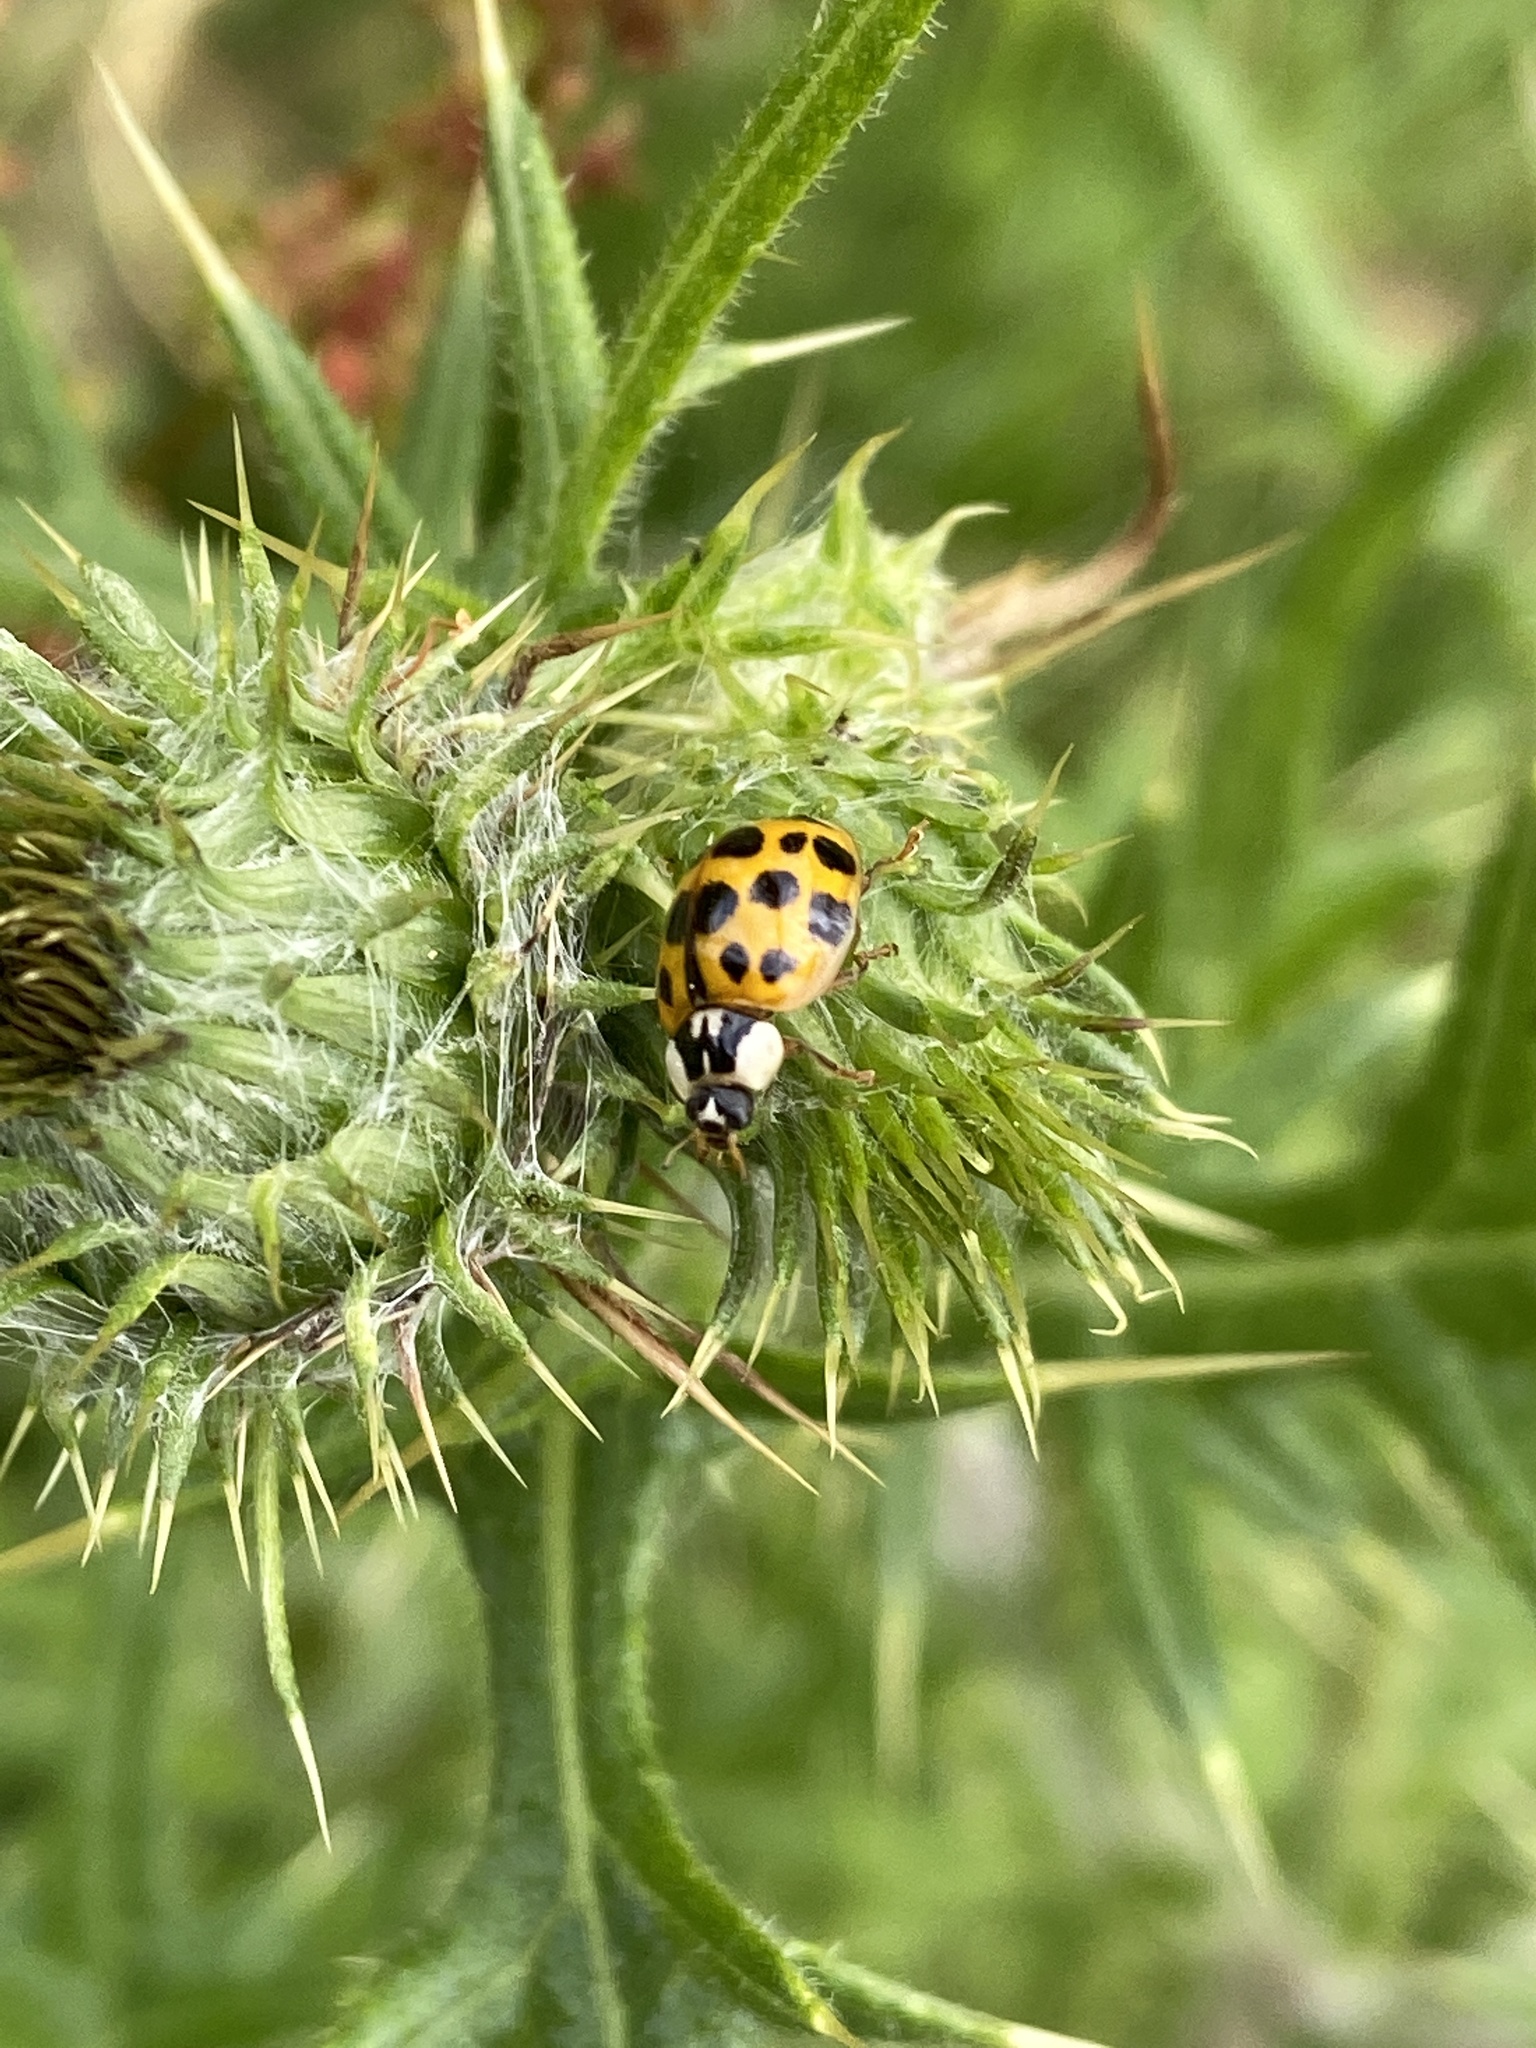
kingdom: Animalia
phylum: Arthropoda
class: Insecta
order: Coleoptera
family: Coccinellidae
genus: Harmonia
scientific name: Harmonia axyridis
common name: Harlequin ladybird
